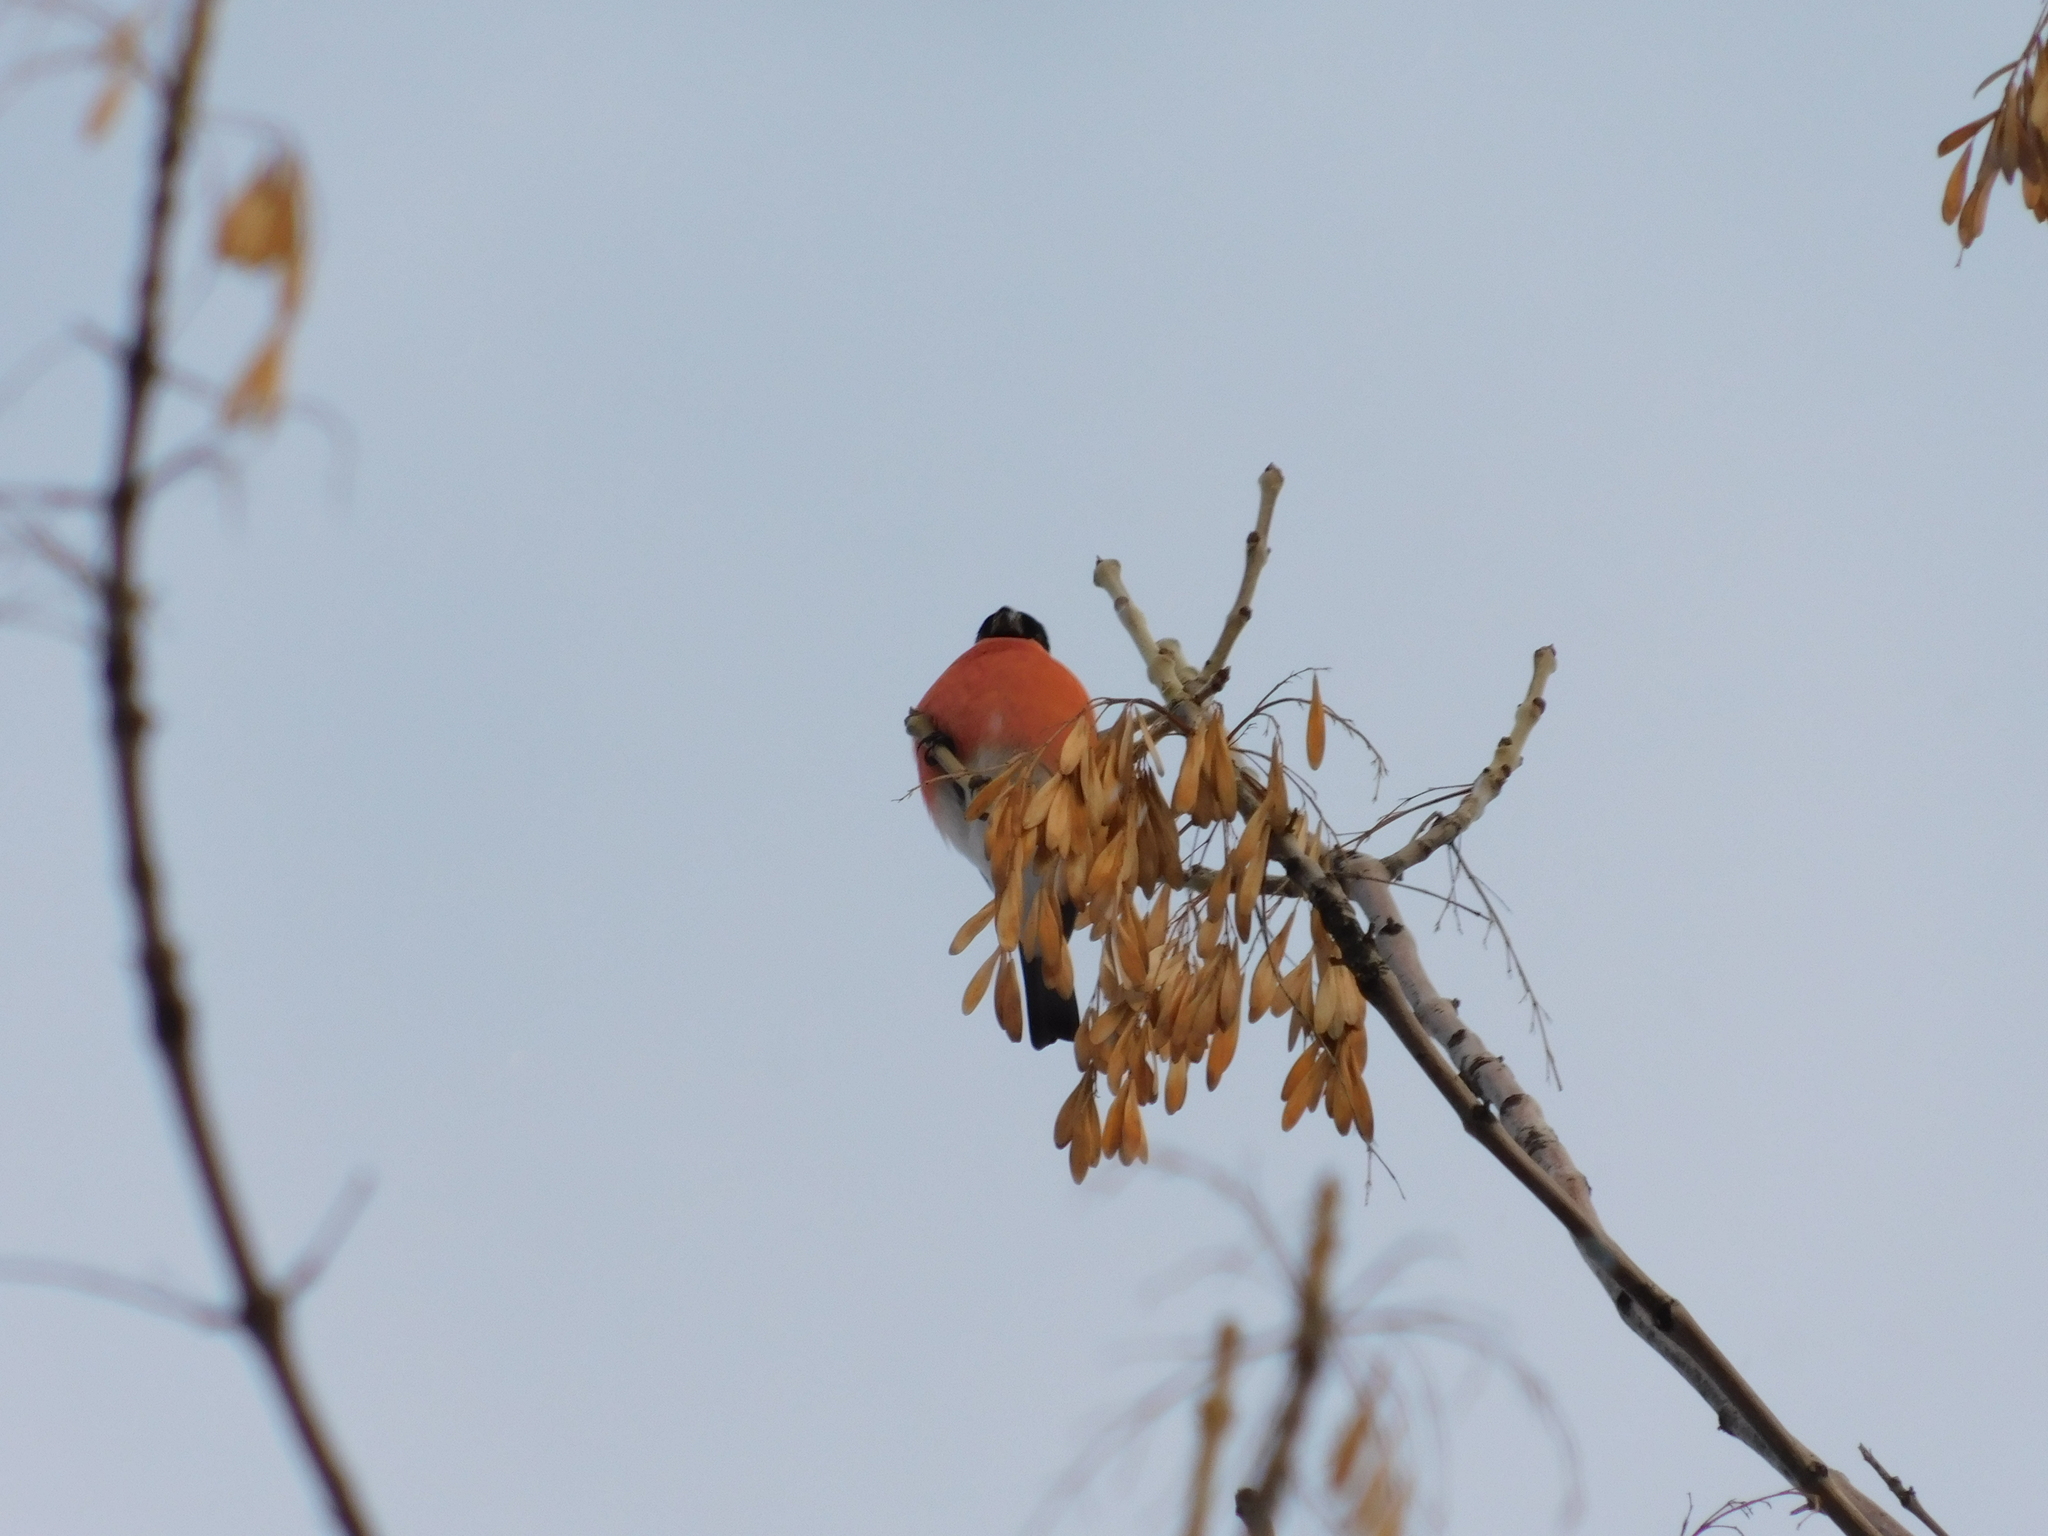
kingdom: Animalia
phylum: Chordata
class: Aves
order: Passeriformes
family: Fringillidae
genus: Pyrrhula
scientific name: Pyrrhula pyrrhula
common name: Eurasian bullfinch
